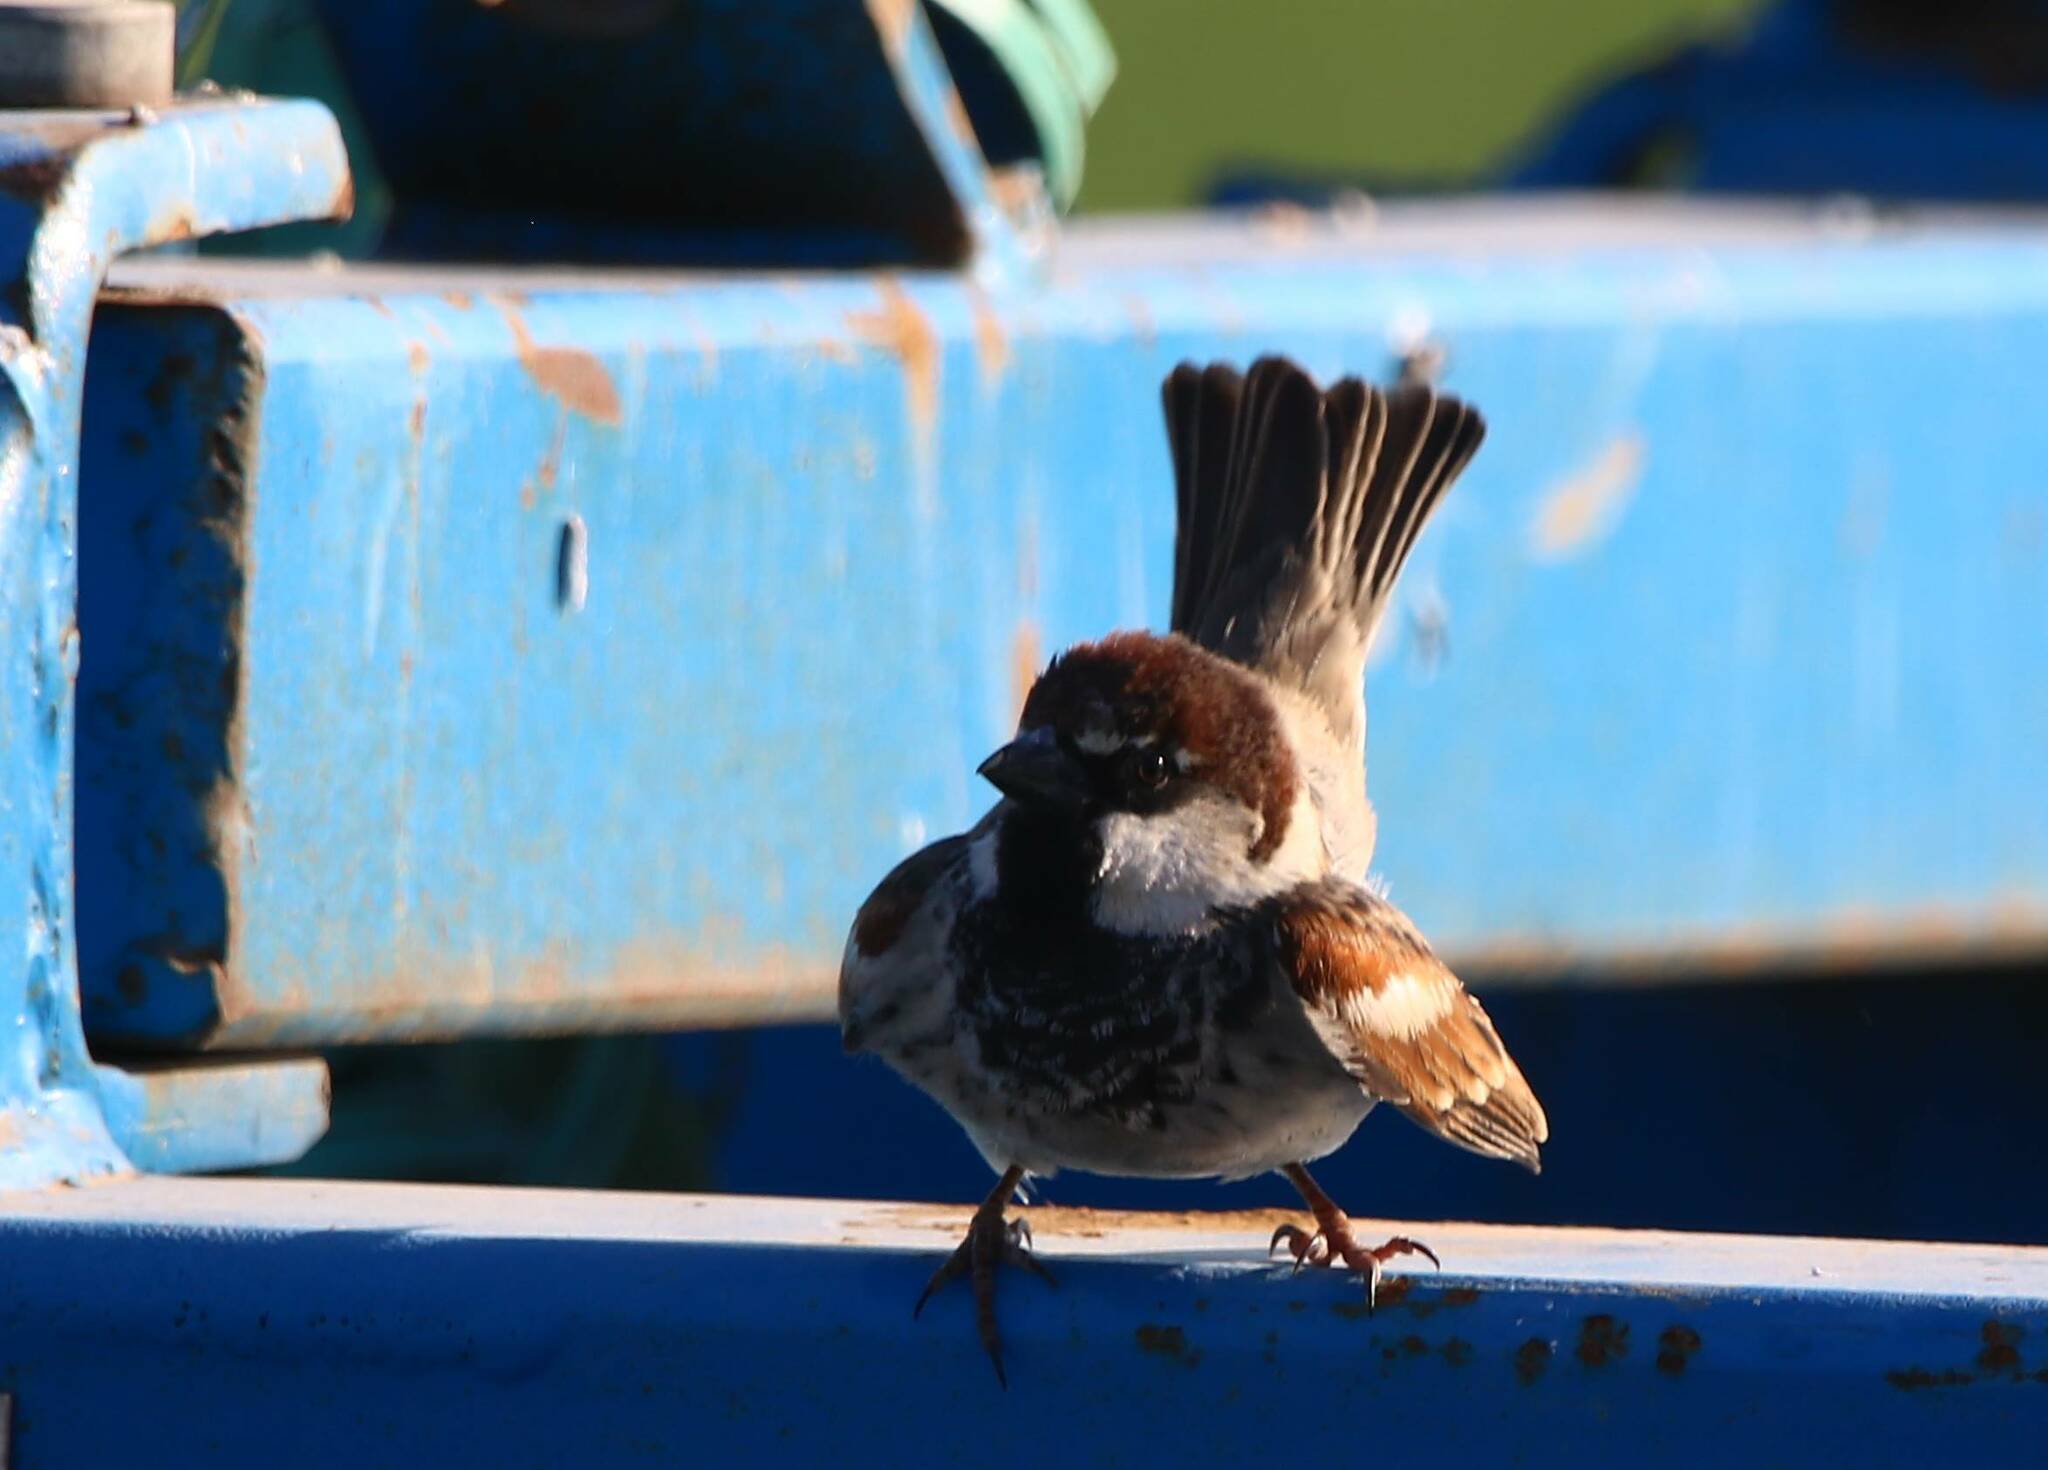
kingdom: Animalia
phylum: Chordata
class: Aves
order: Passeriformes
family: Passeridae
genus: Passer
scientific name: Passer hispaniolensis
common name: Spanish sparrow
